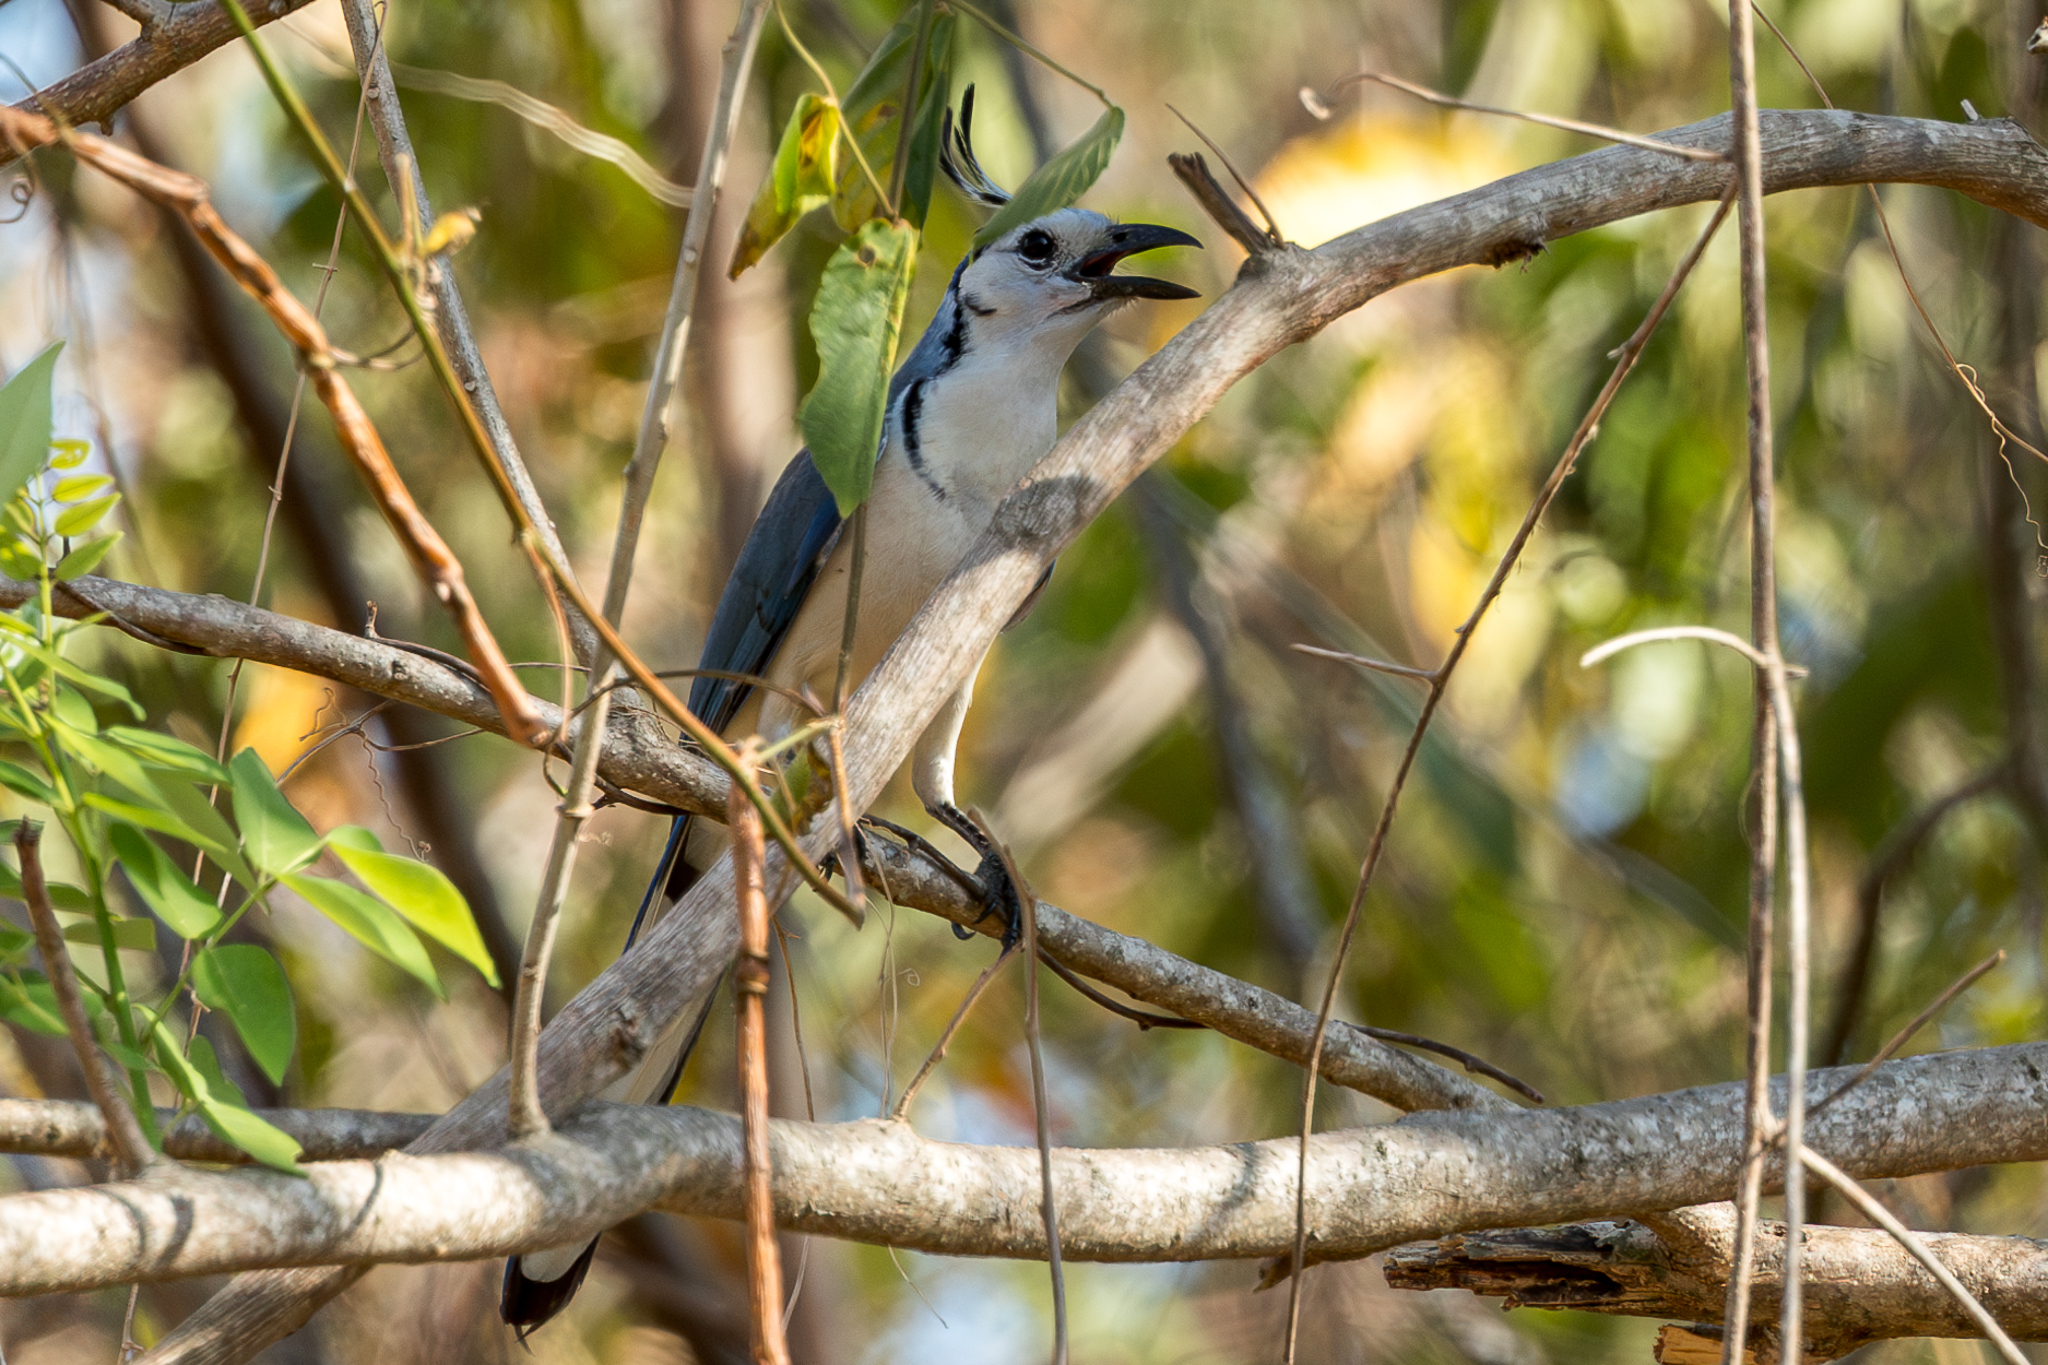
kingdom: Animalia
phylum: Chordata
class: Aves
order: Passeriformes
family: Corvidae
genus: Calocitta
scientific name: Calocitta formosa
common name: White-throated magpie-jay
